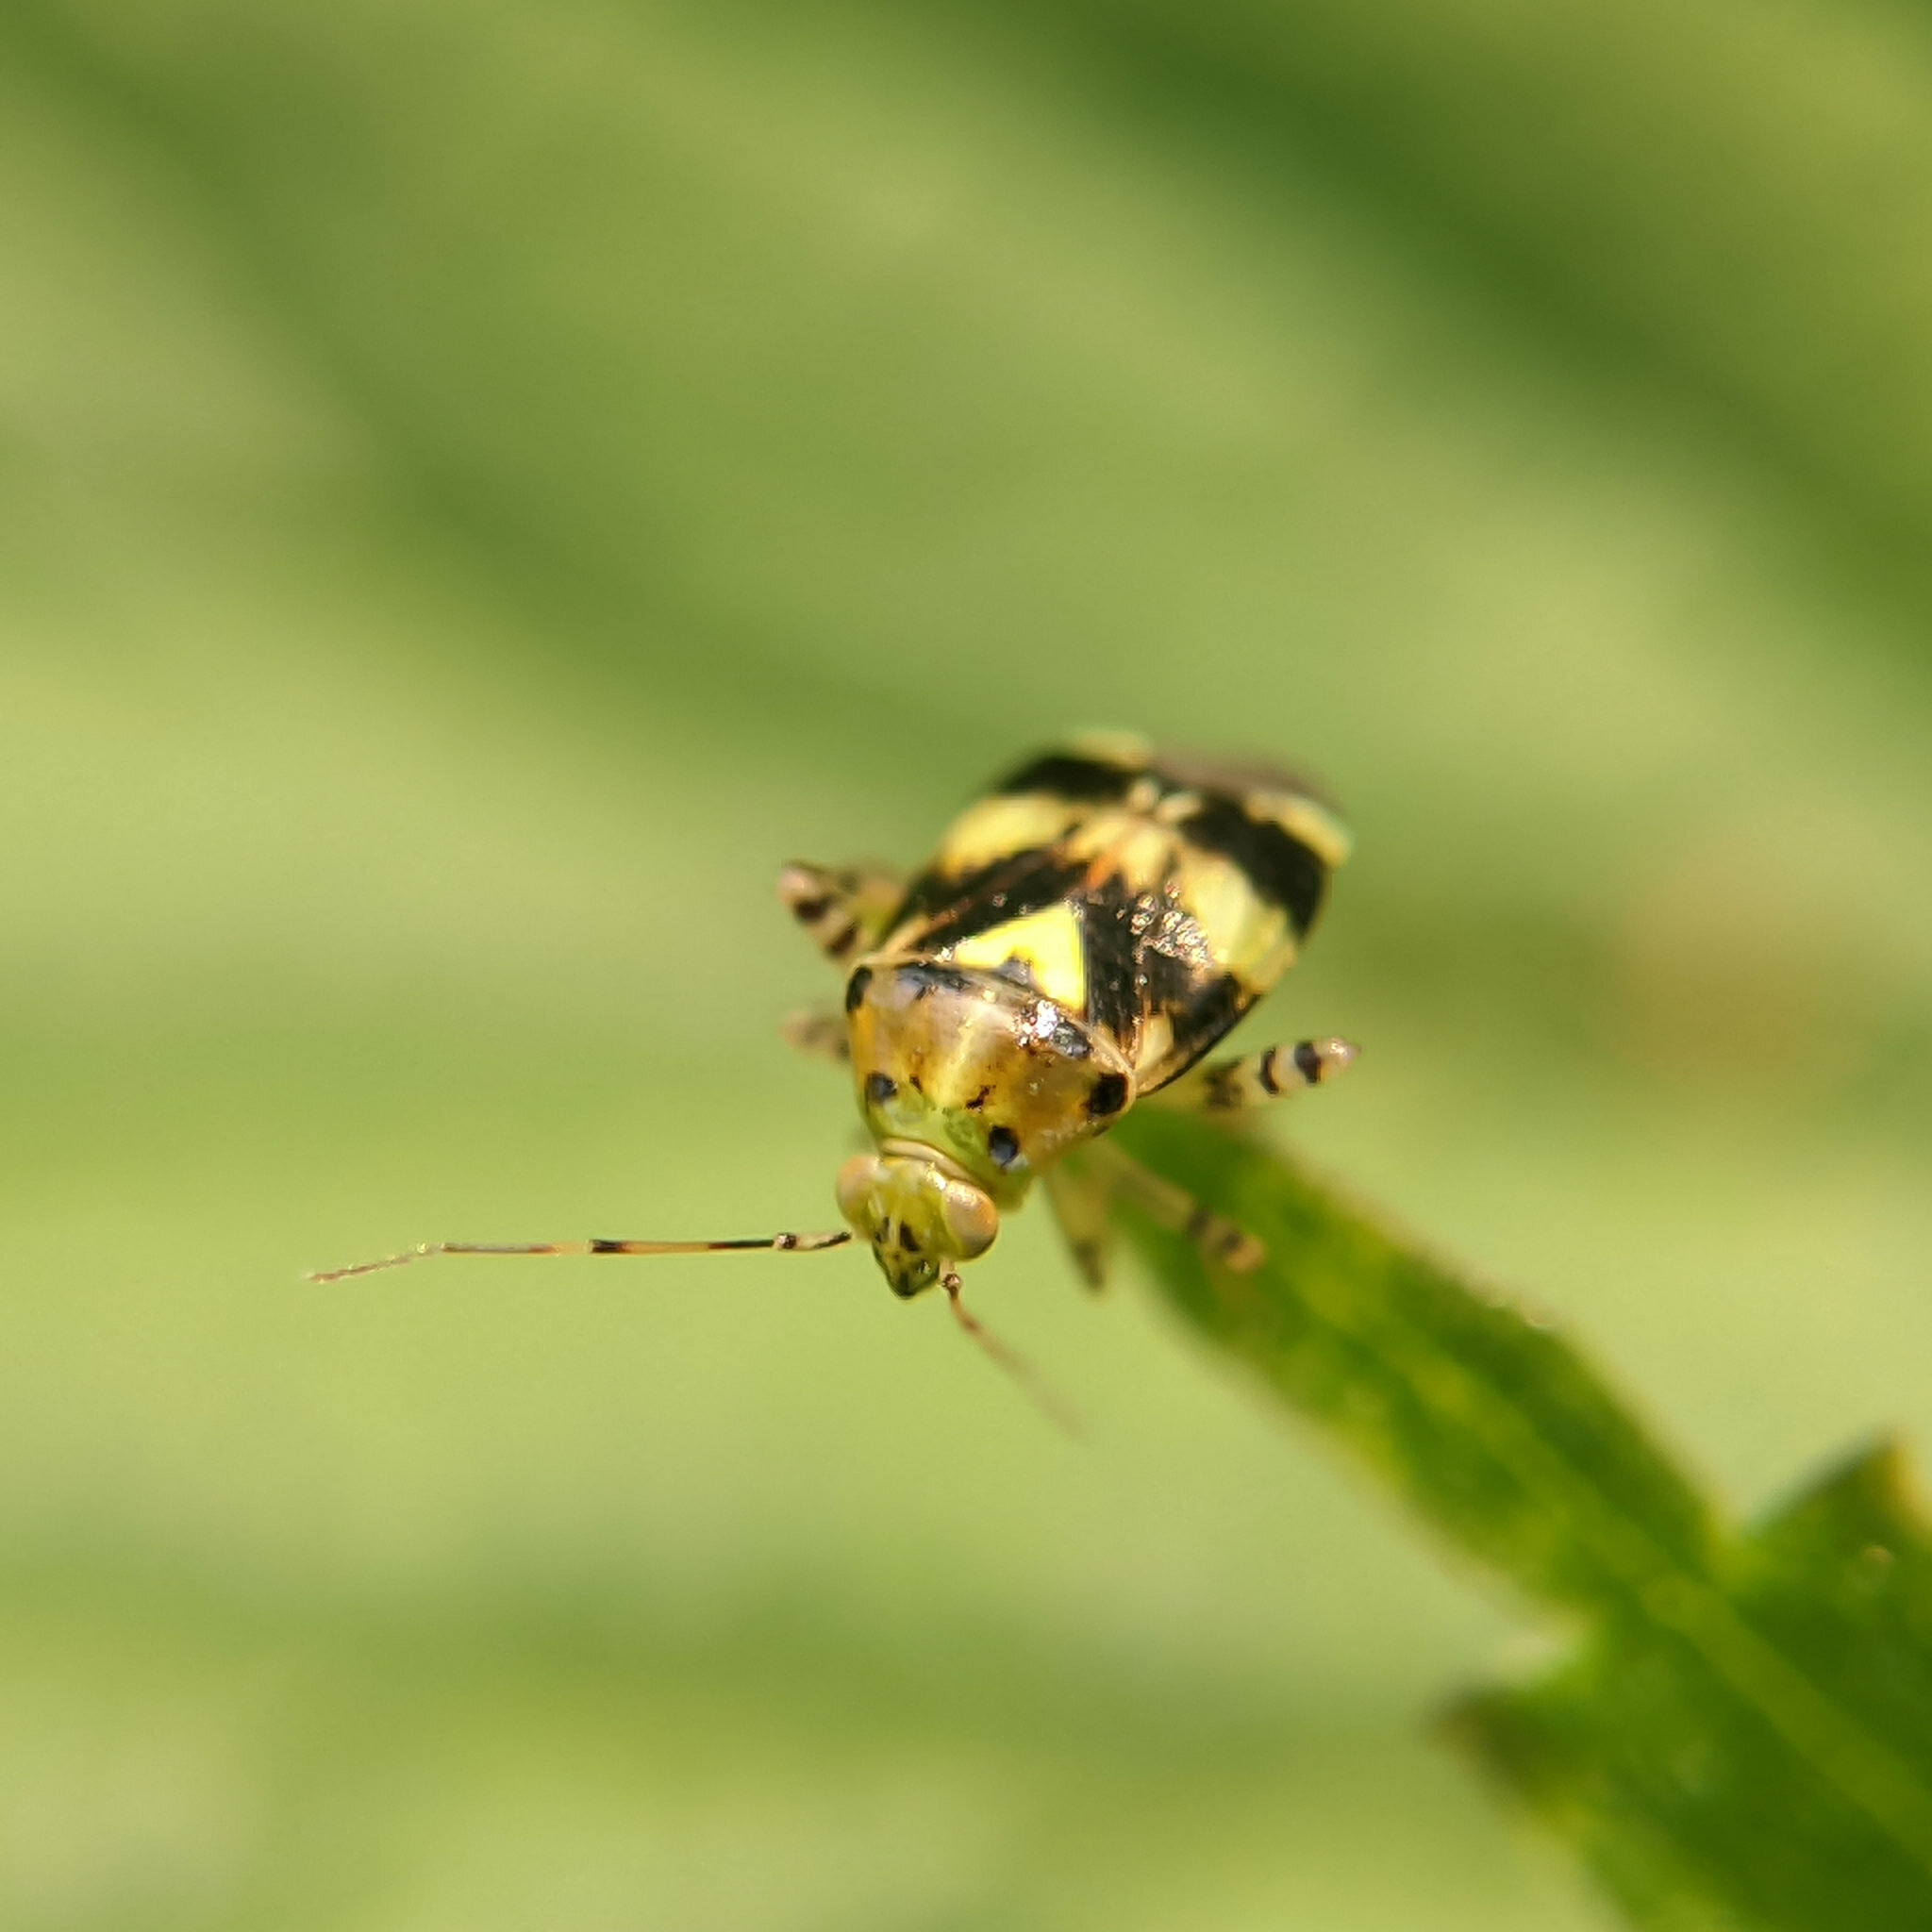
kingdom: Animalia
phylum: Arthropoda
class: Insecta
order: Hemiptera
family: Miridae
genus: Liocoris
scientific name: Liocoris tripustulatus
